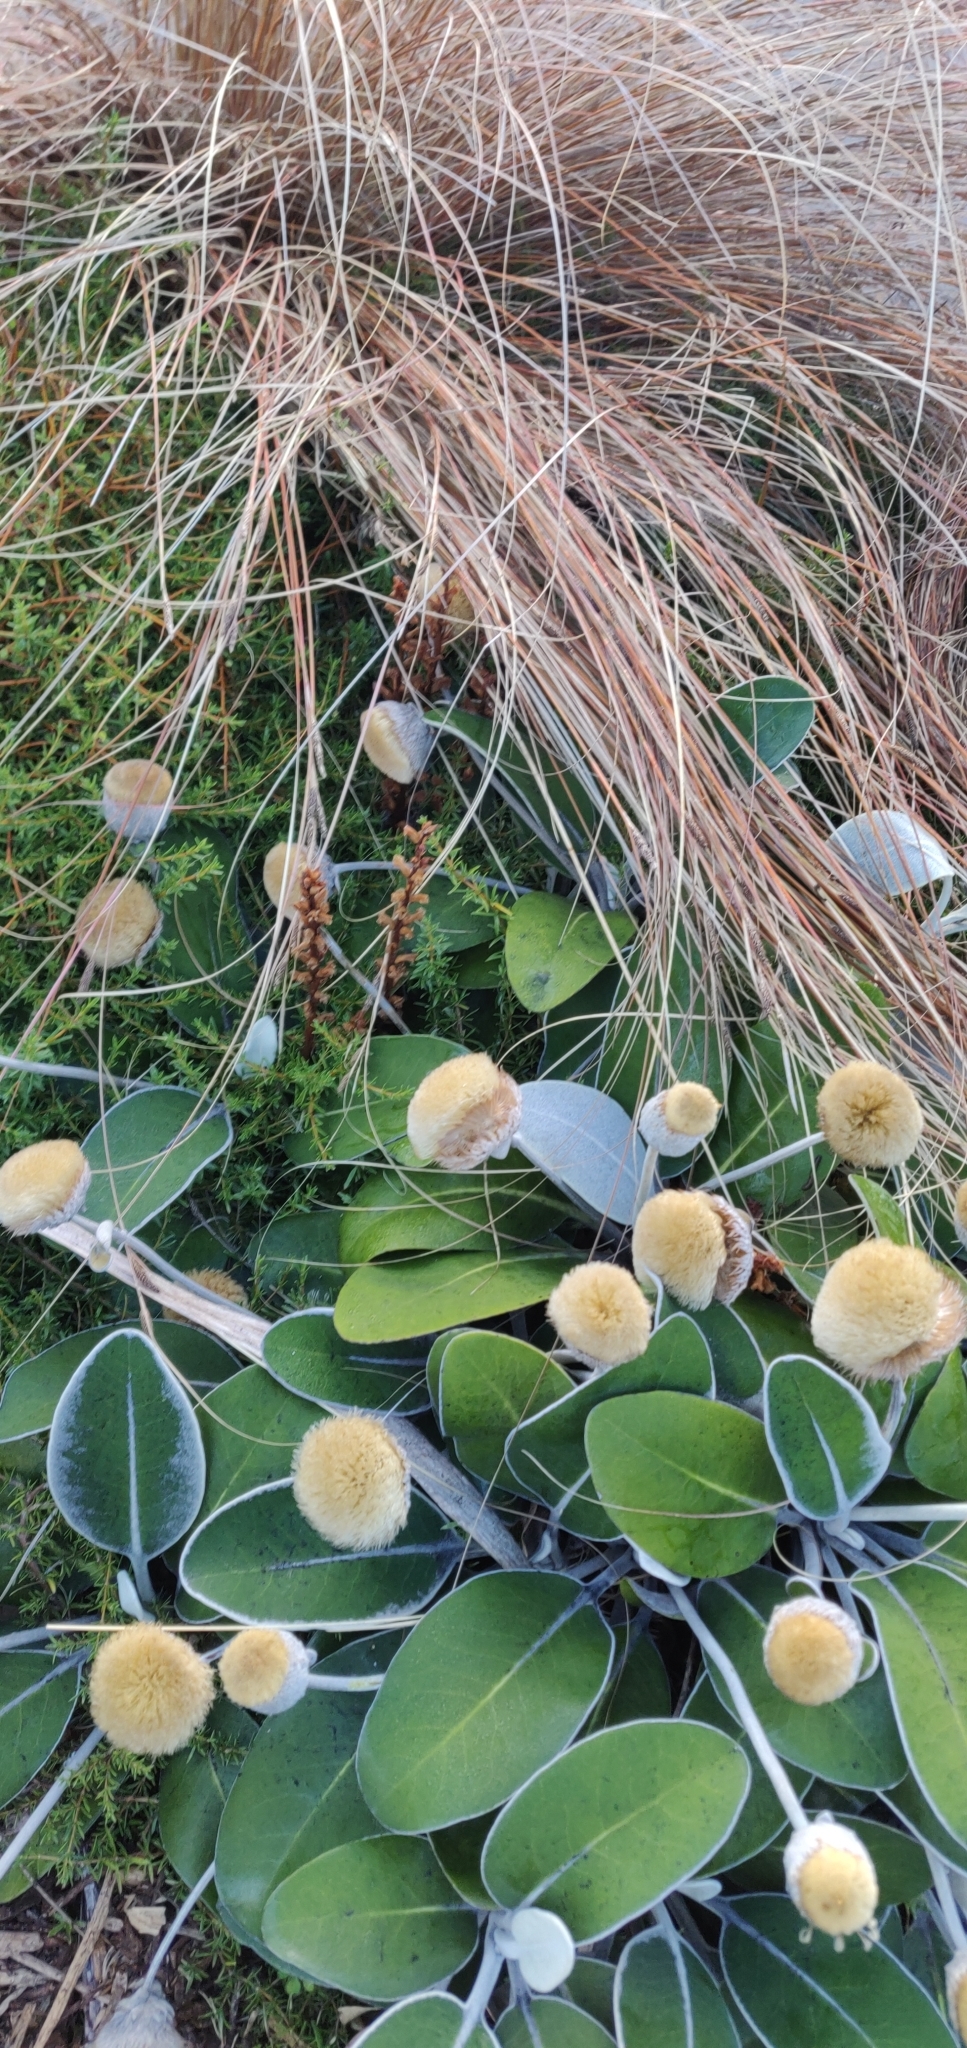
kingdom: Plantae
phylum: Tracheophyta
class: Magnoliopsida
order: Lamiales
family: Orobanchaceae
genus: Orobanche
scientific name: Orobanche minor
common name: Common broomrape
